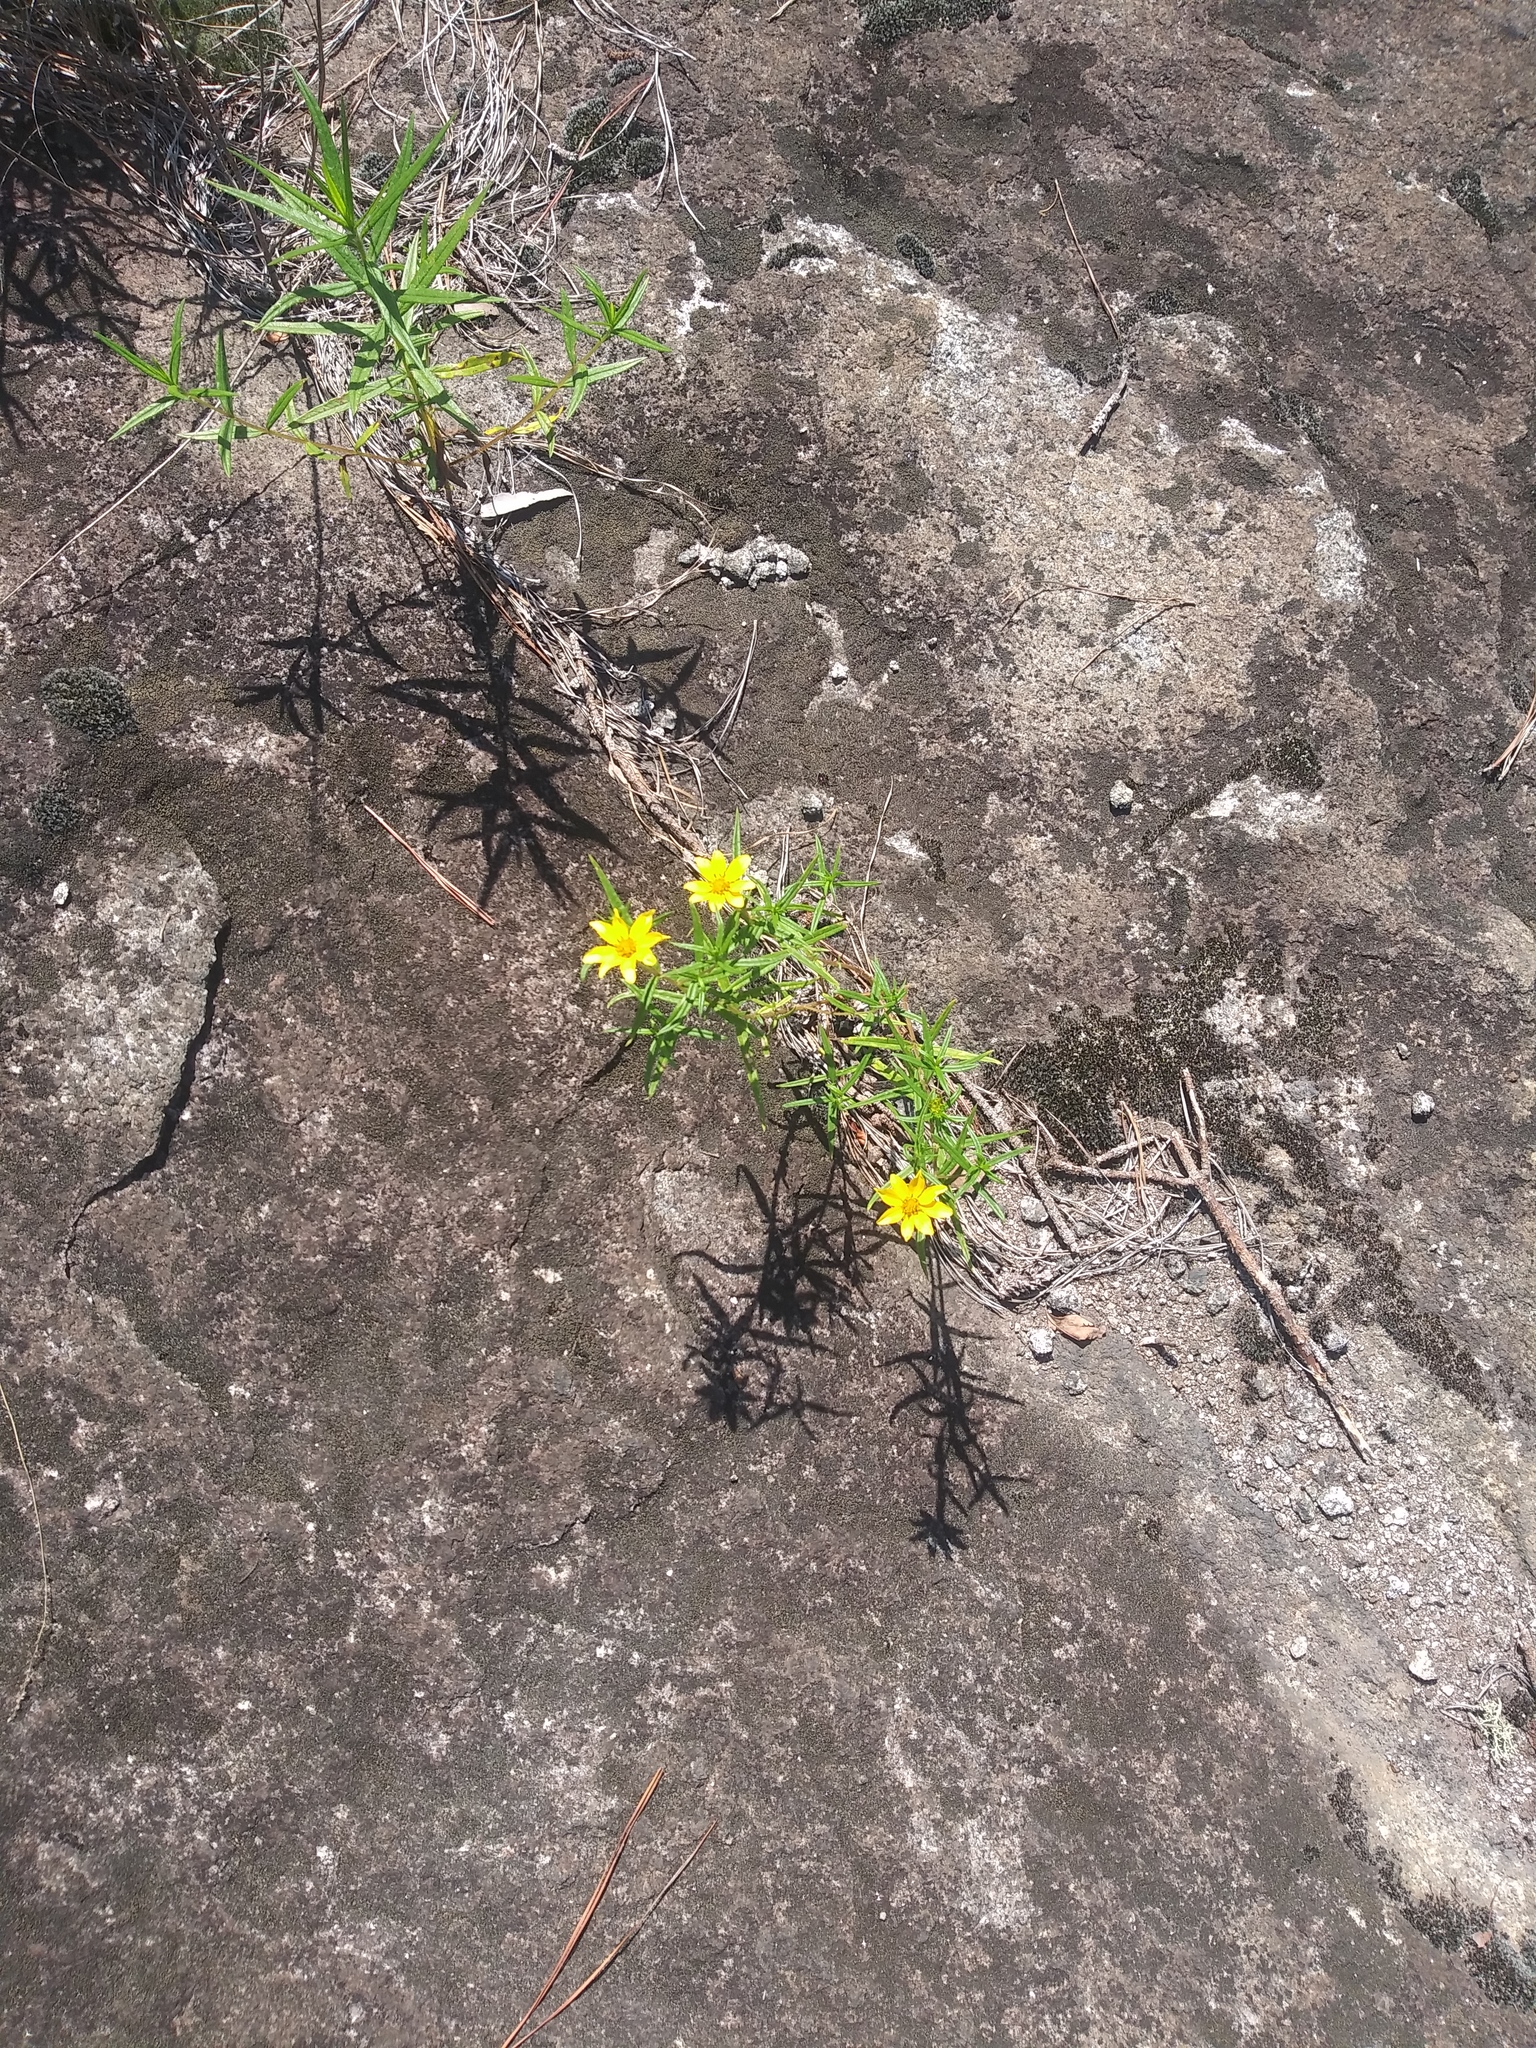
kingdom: Plantae
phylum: Tracheophyta
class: Magnoliopsida
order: Asterales
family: Asteraceae
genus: Helianthus
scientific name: Helianthus porteri
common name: Porter's sunflower
